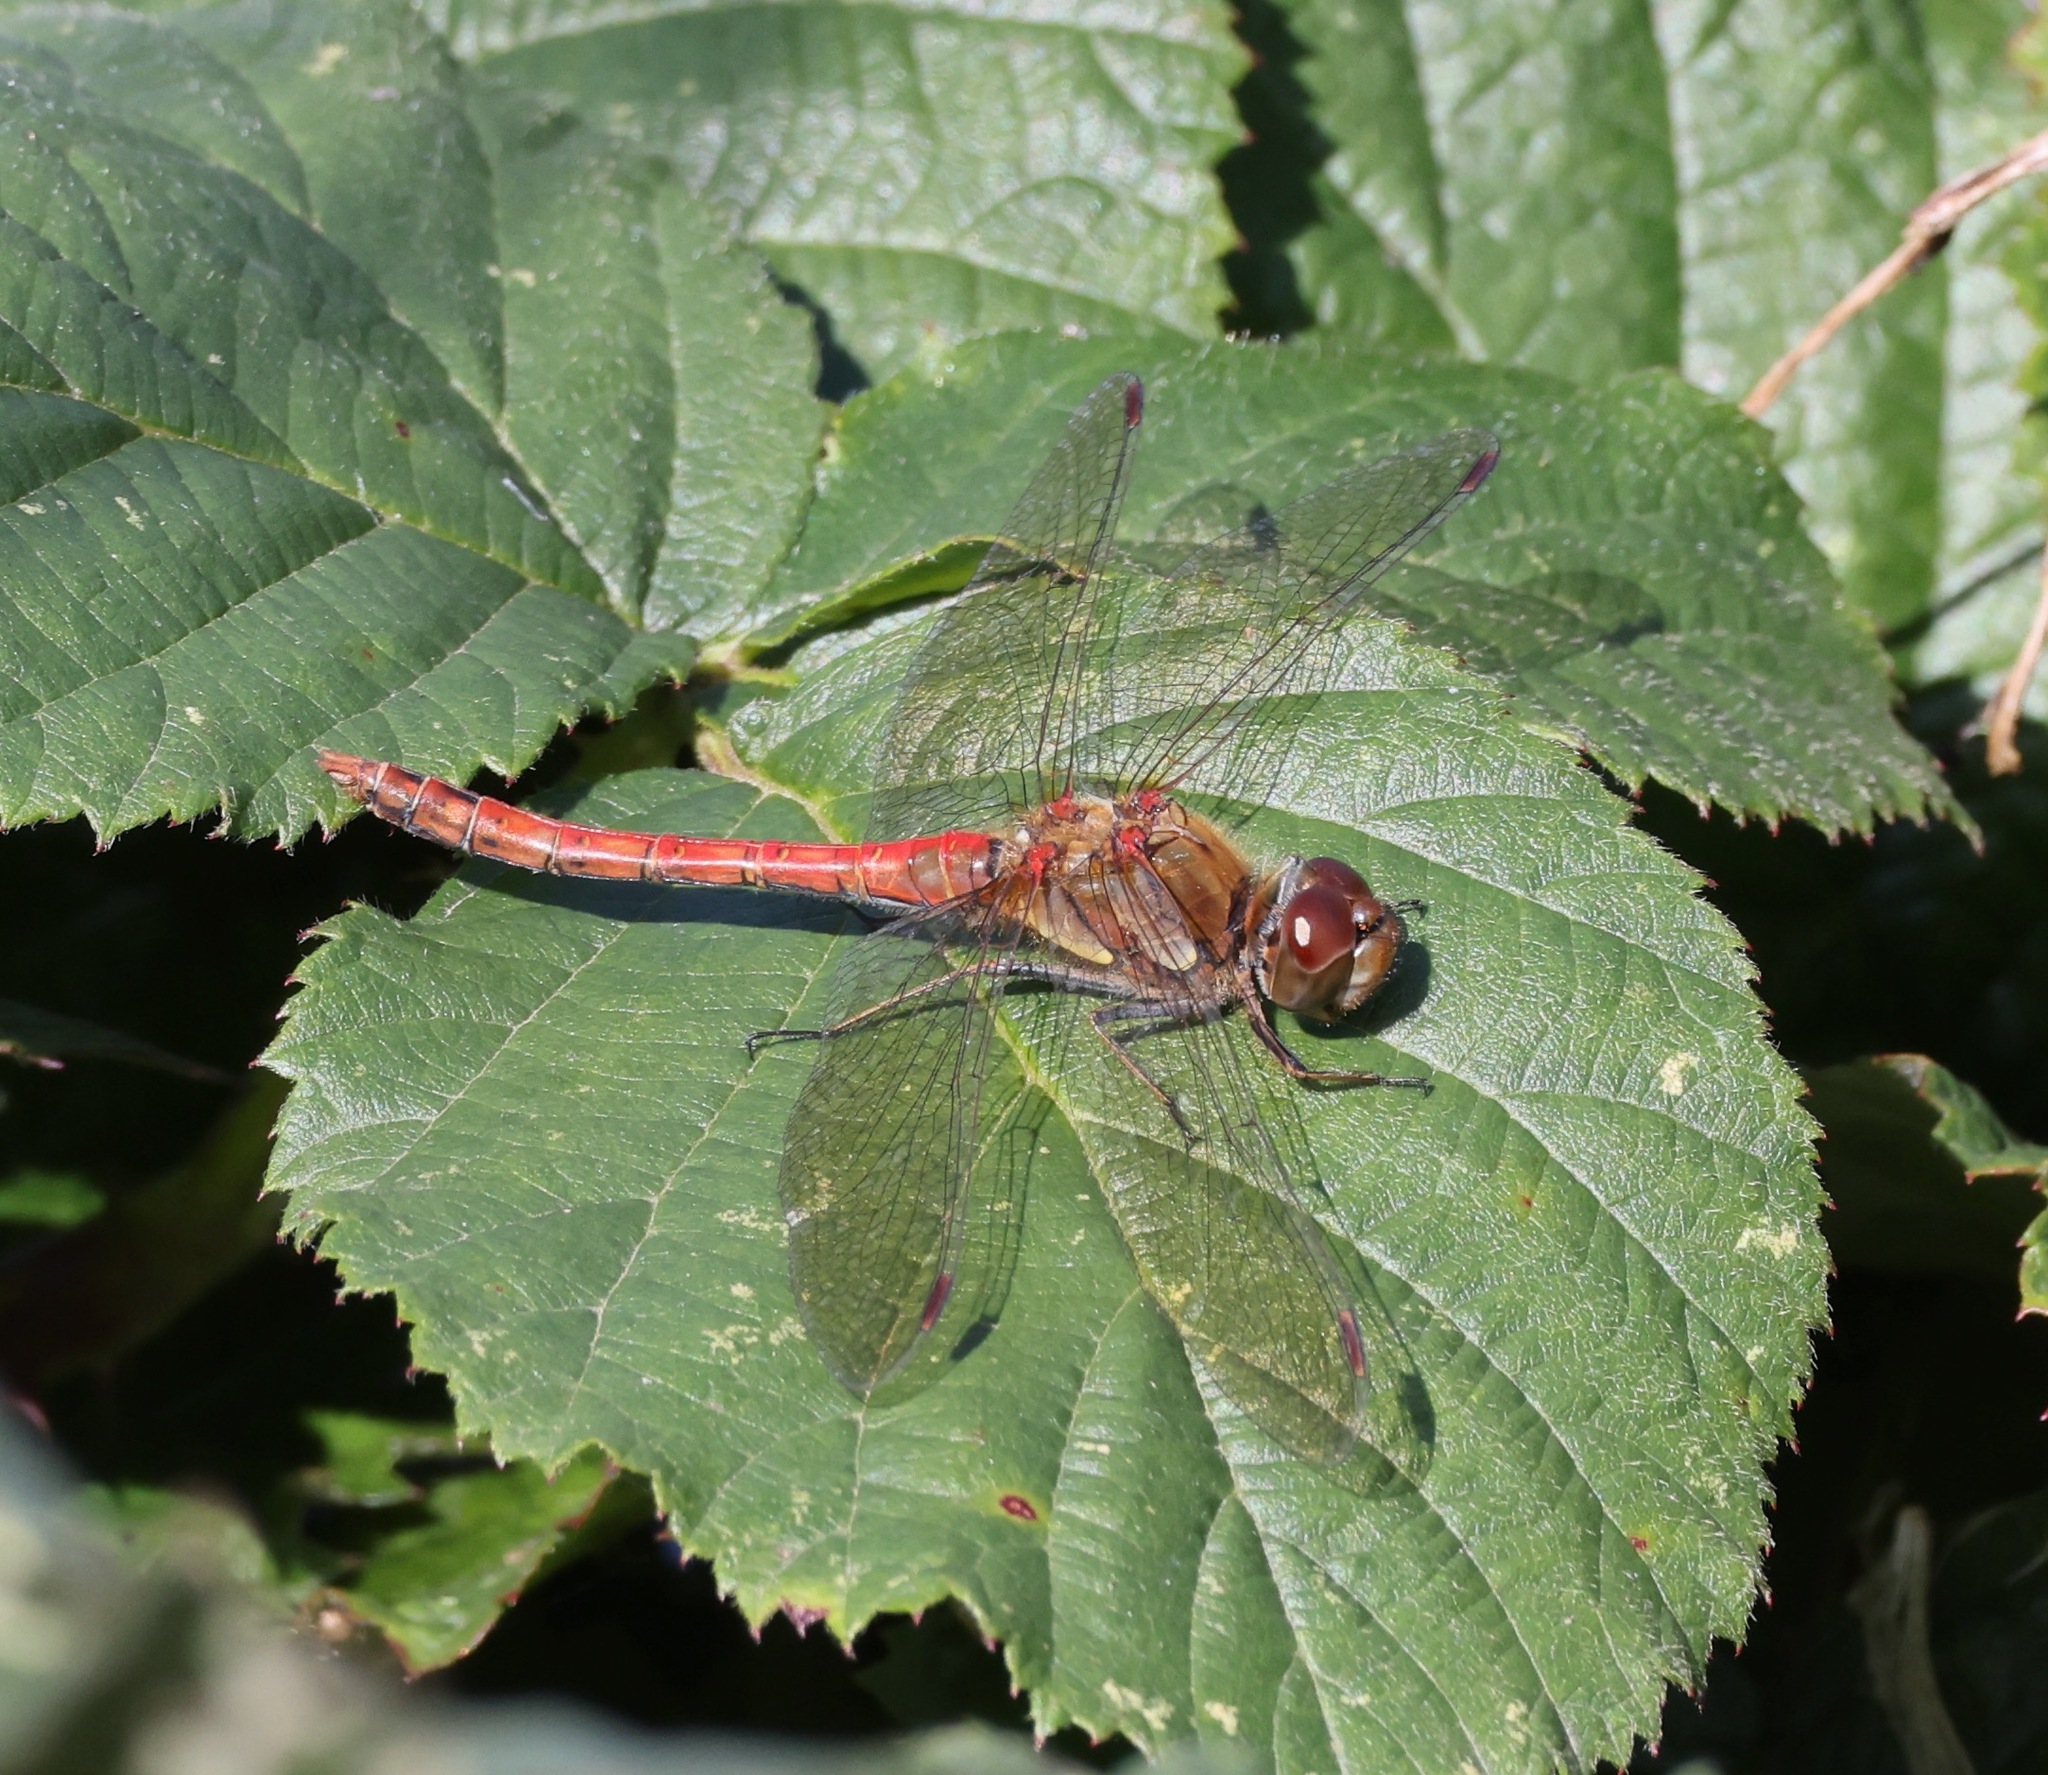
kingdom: Animalia
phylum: Arthropoda
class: Insecta
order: Odonata
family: Libellulidae
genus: Sympetrum
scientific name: Sympetrum striolatum
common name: Common darter
